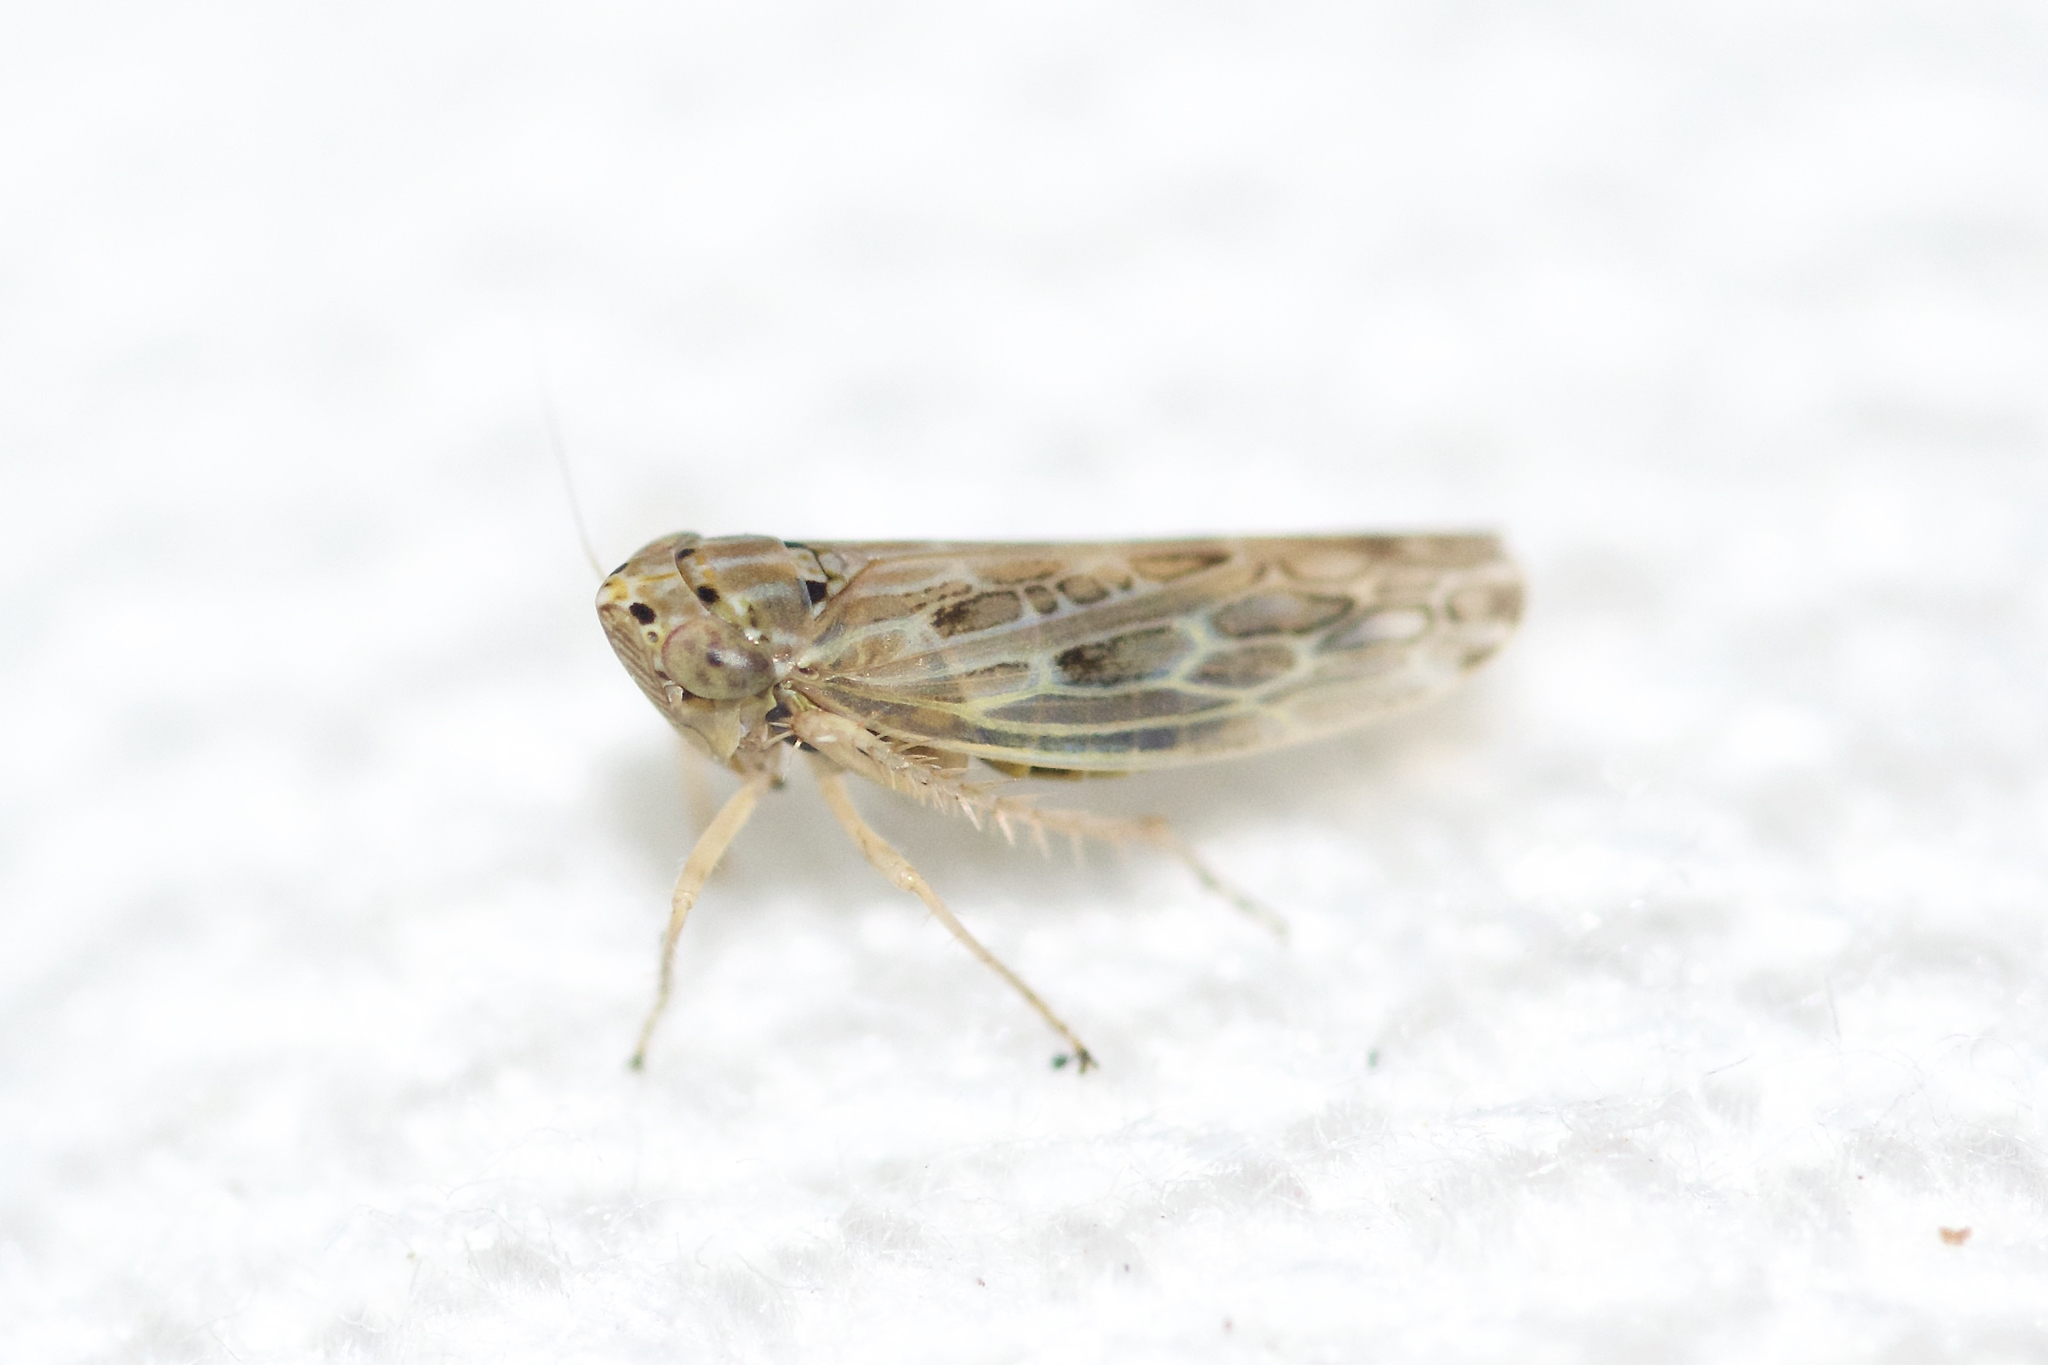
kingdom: Animalia
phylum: Arthropoda
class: Insecta
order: Hemiptera
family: Cicadellidae
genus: Endria
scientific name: Endria inimicus
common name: Painted leafhopper
